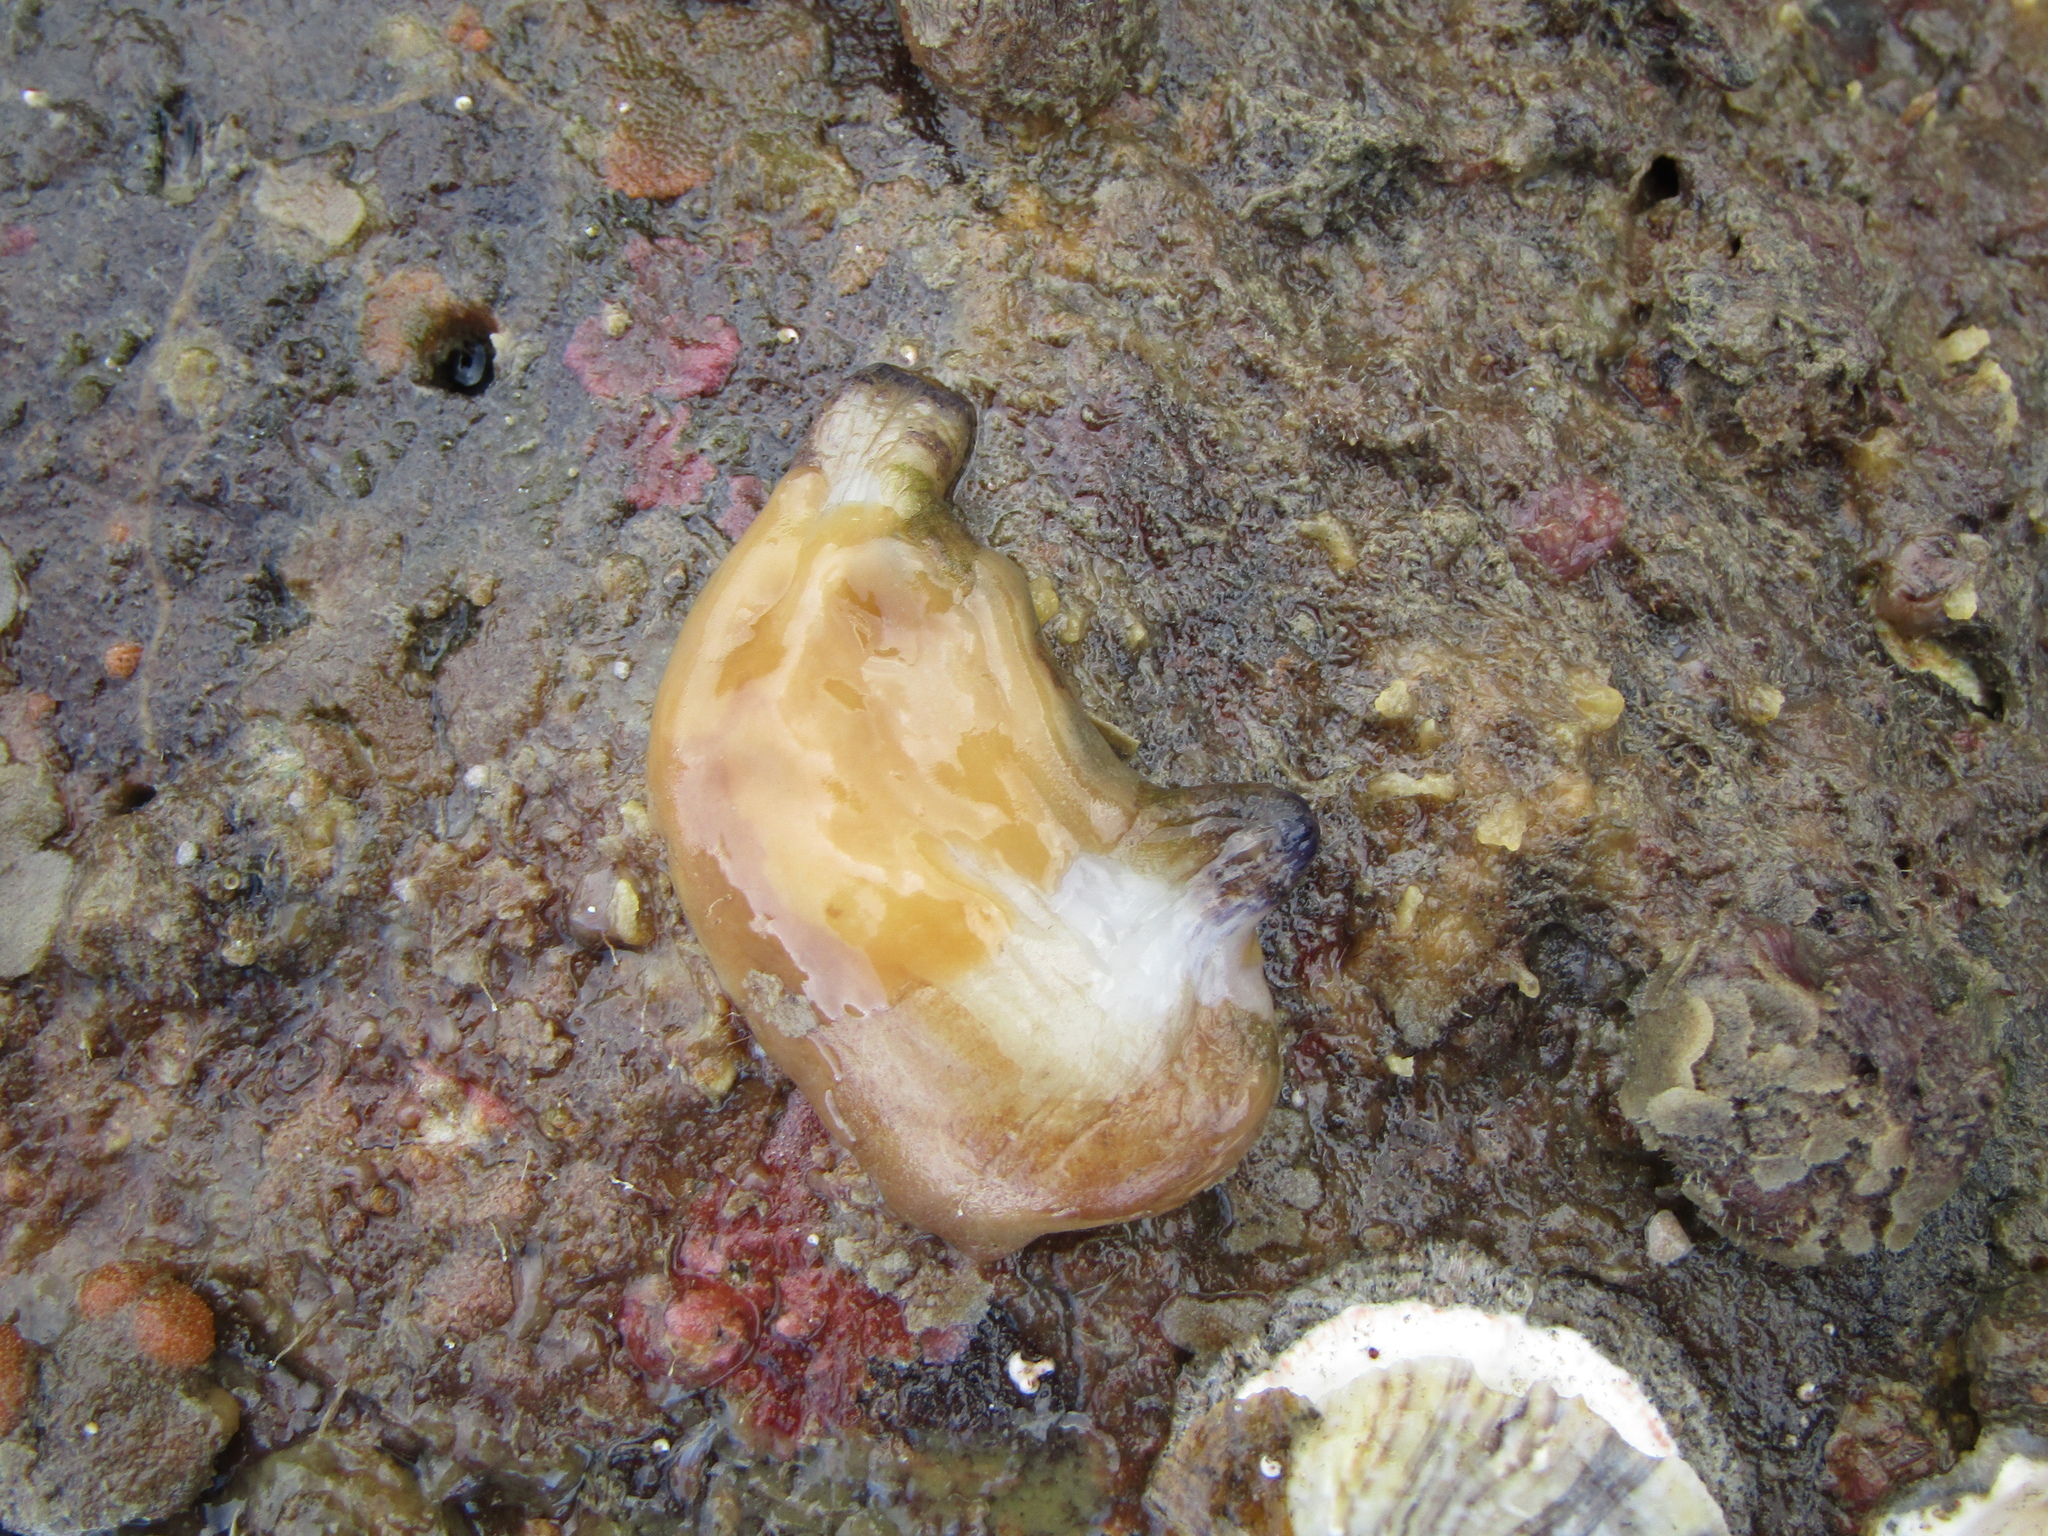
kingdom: Animalia
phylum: Chordata
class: Ascidiacea
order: Stolidobranchia
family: Styelidae
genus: Asterocarpa
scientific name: Asterocarpa coerulea
